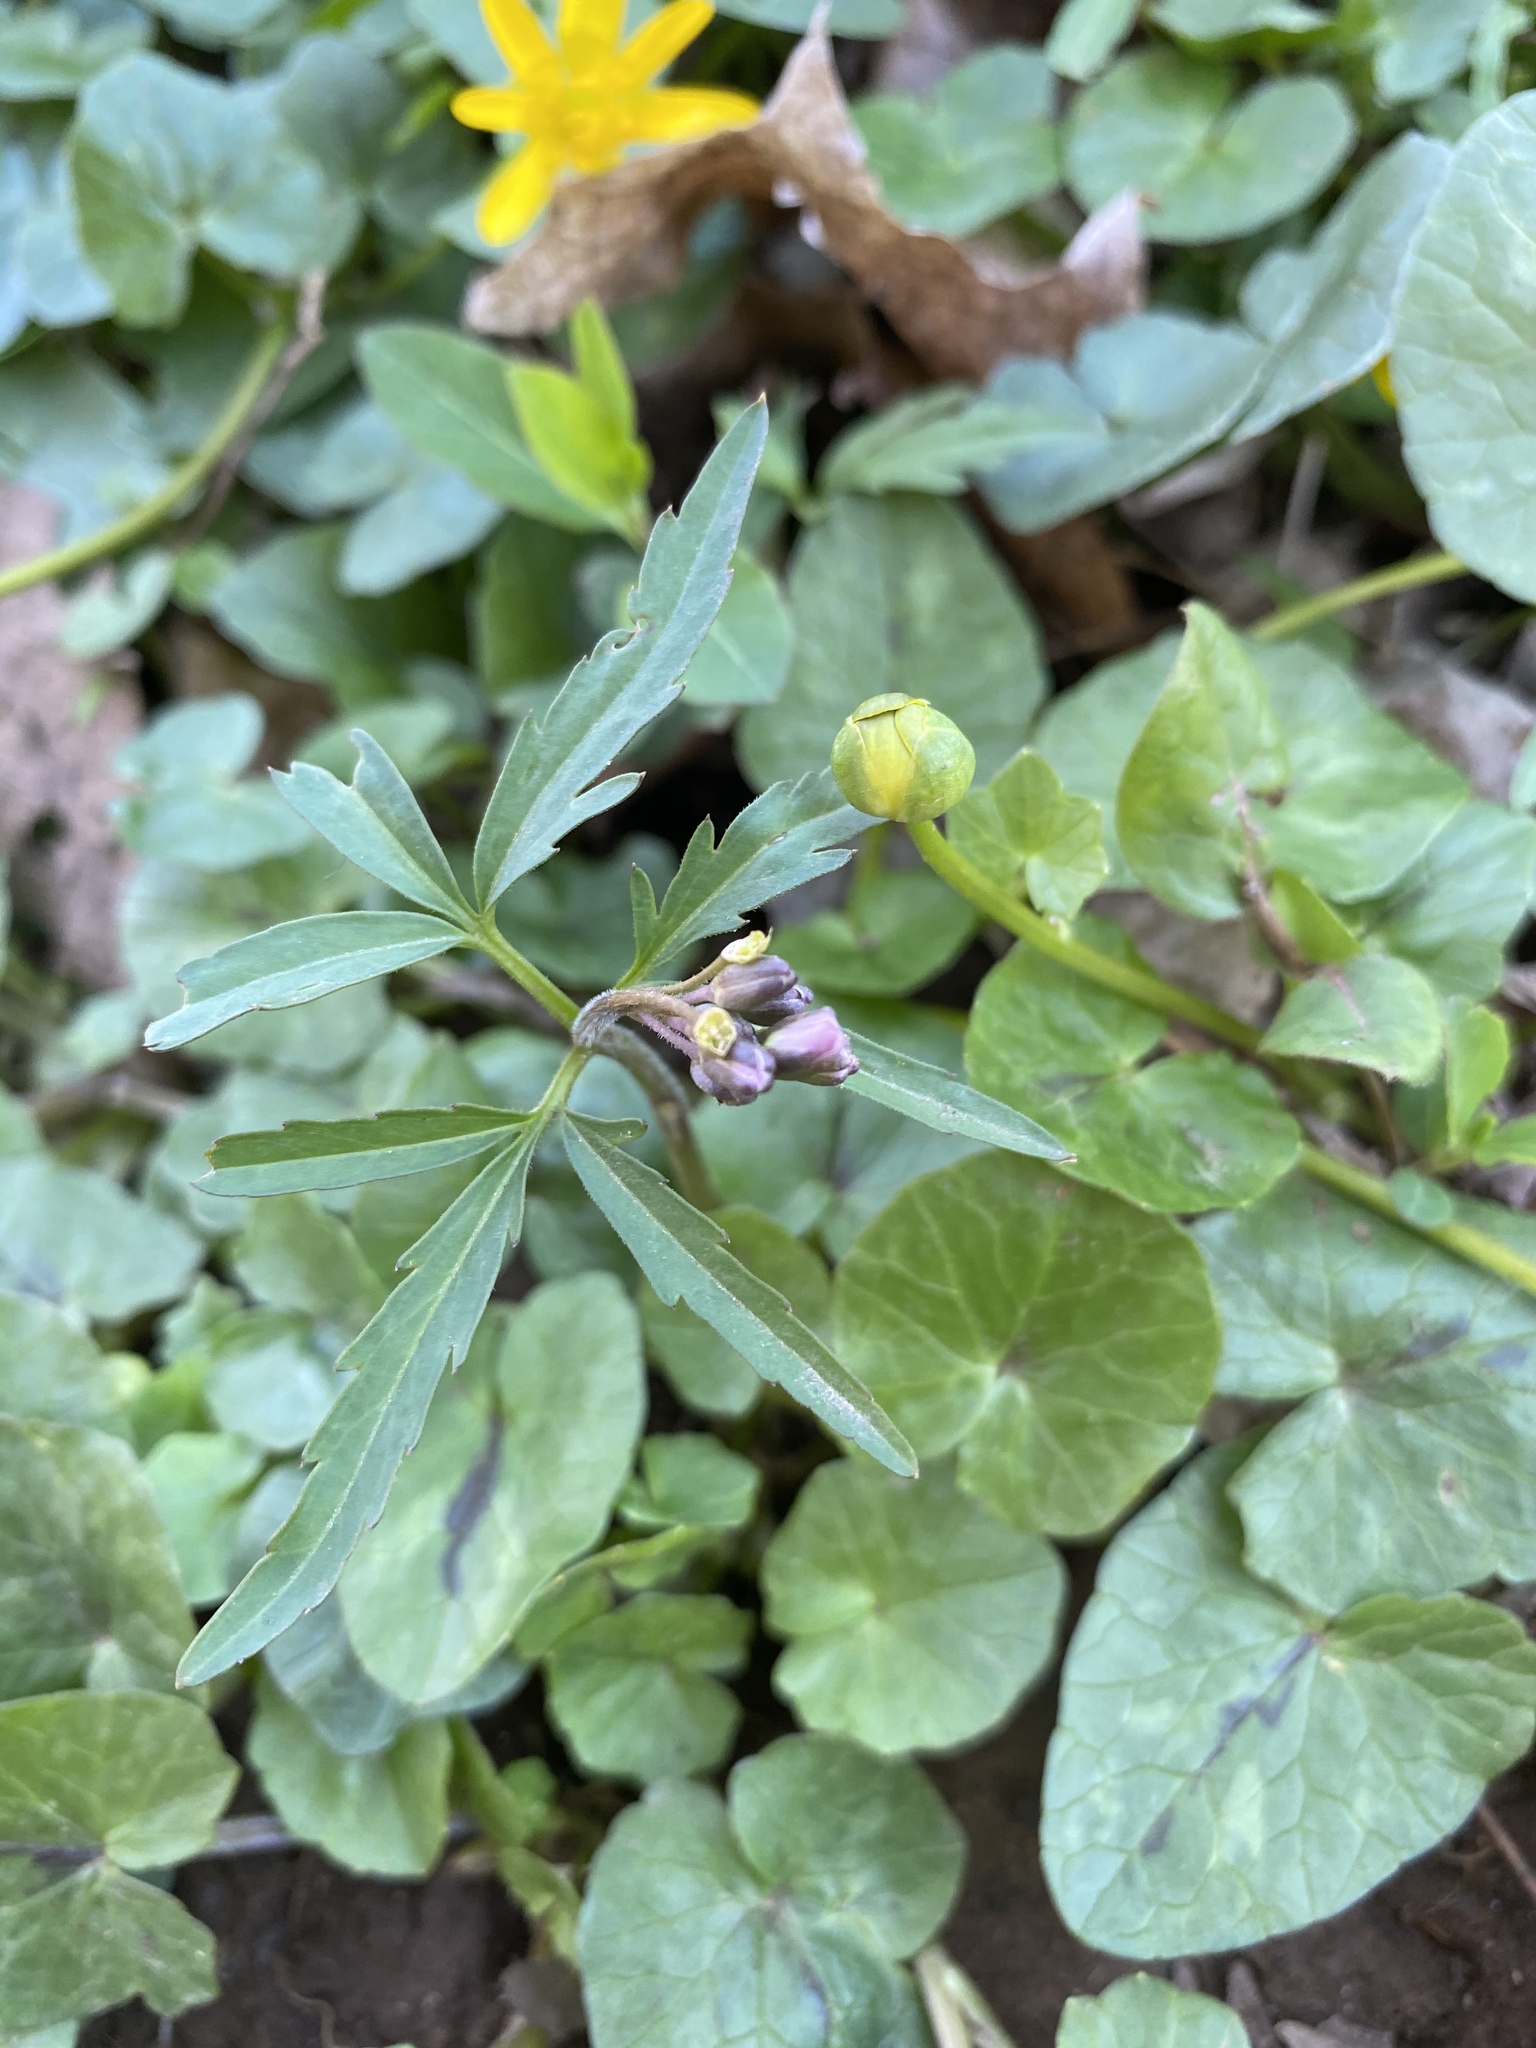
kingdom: Plantae
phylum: Tracheophyta
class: Magnoliopsida
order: Brassicales
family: Brassicaceae
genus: Cardamine
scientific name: Cardamine concatenata
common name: Cut-leaf toothcup
